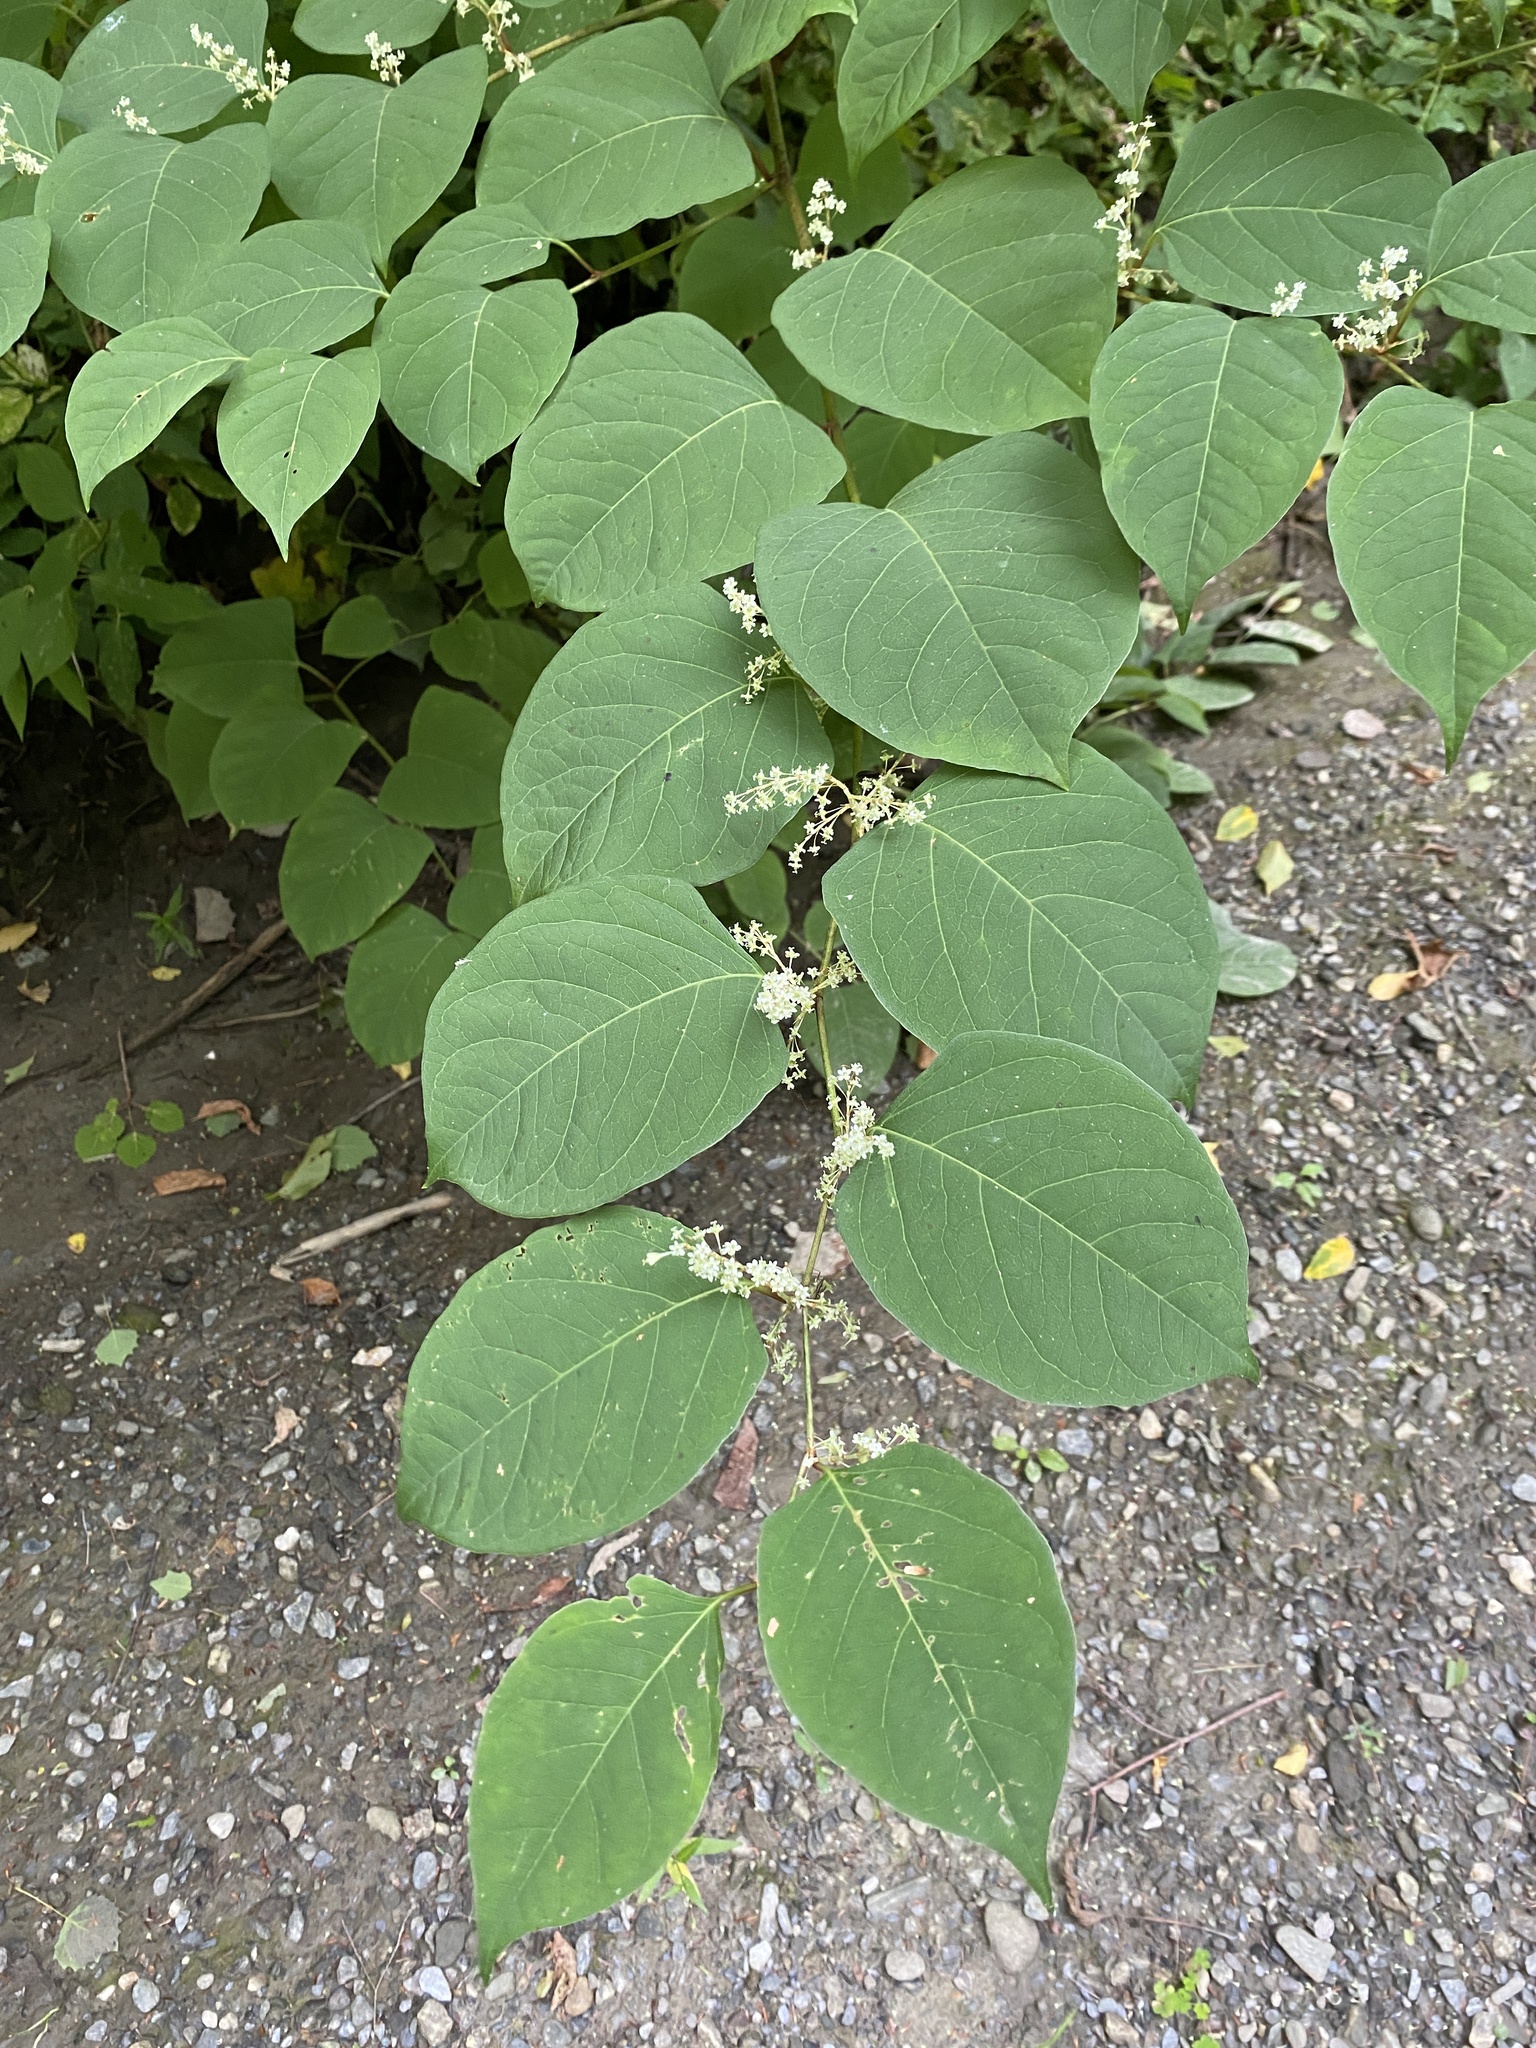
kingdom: Plantae
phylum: Tracheophyta
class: Magnoliopsida
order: Caryophyllales
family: Polygonaceae
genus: Reynoutria
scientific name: Reynoutria japonica
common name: Japanese knotweed
